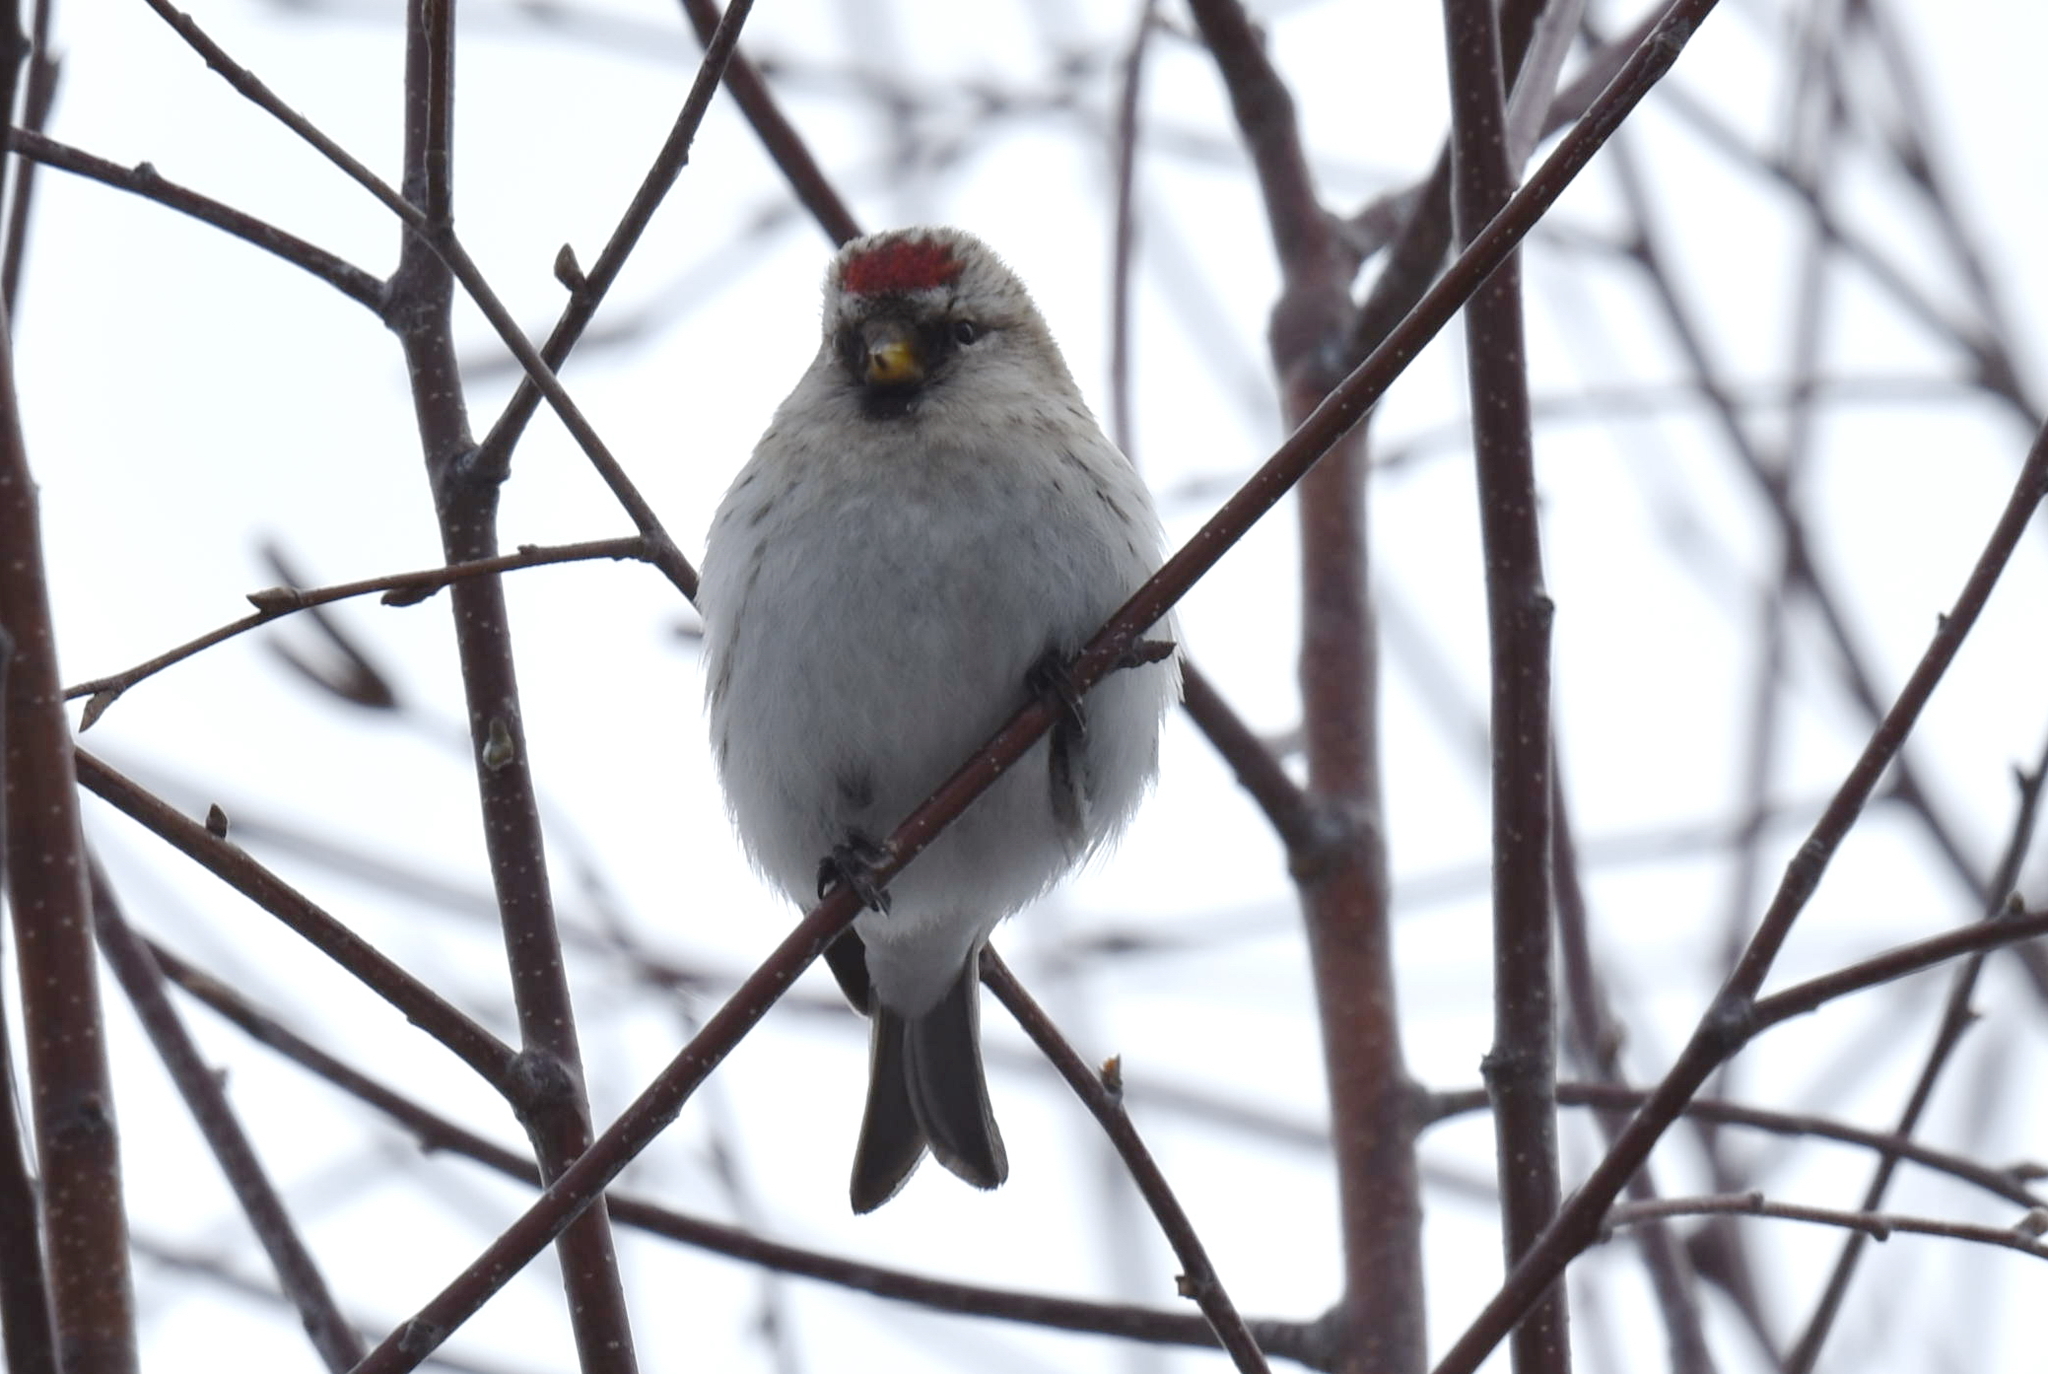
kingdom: Animalia
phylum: Chordata
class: Aves
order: Passeriformes
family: Fringillidae
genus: Acanthis
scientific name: Acanthis hornemanni
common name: Arctic redpoll
